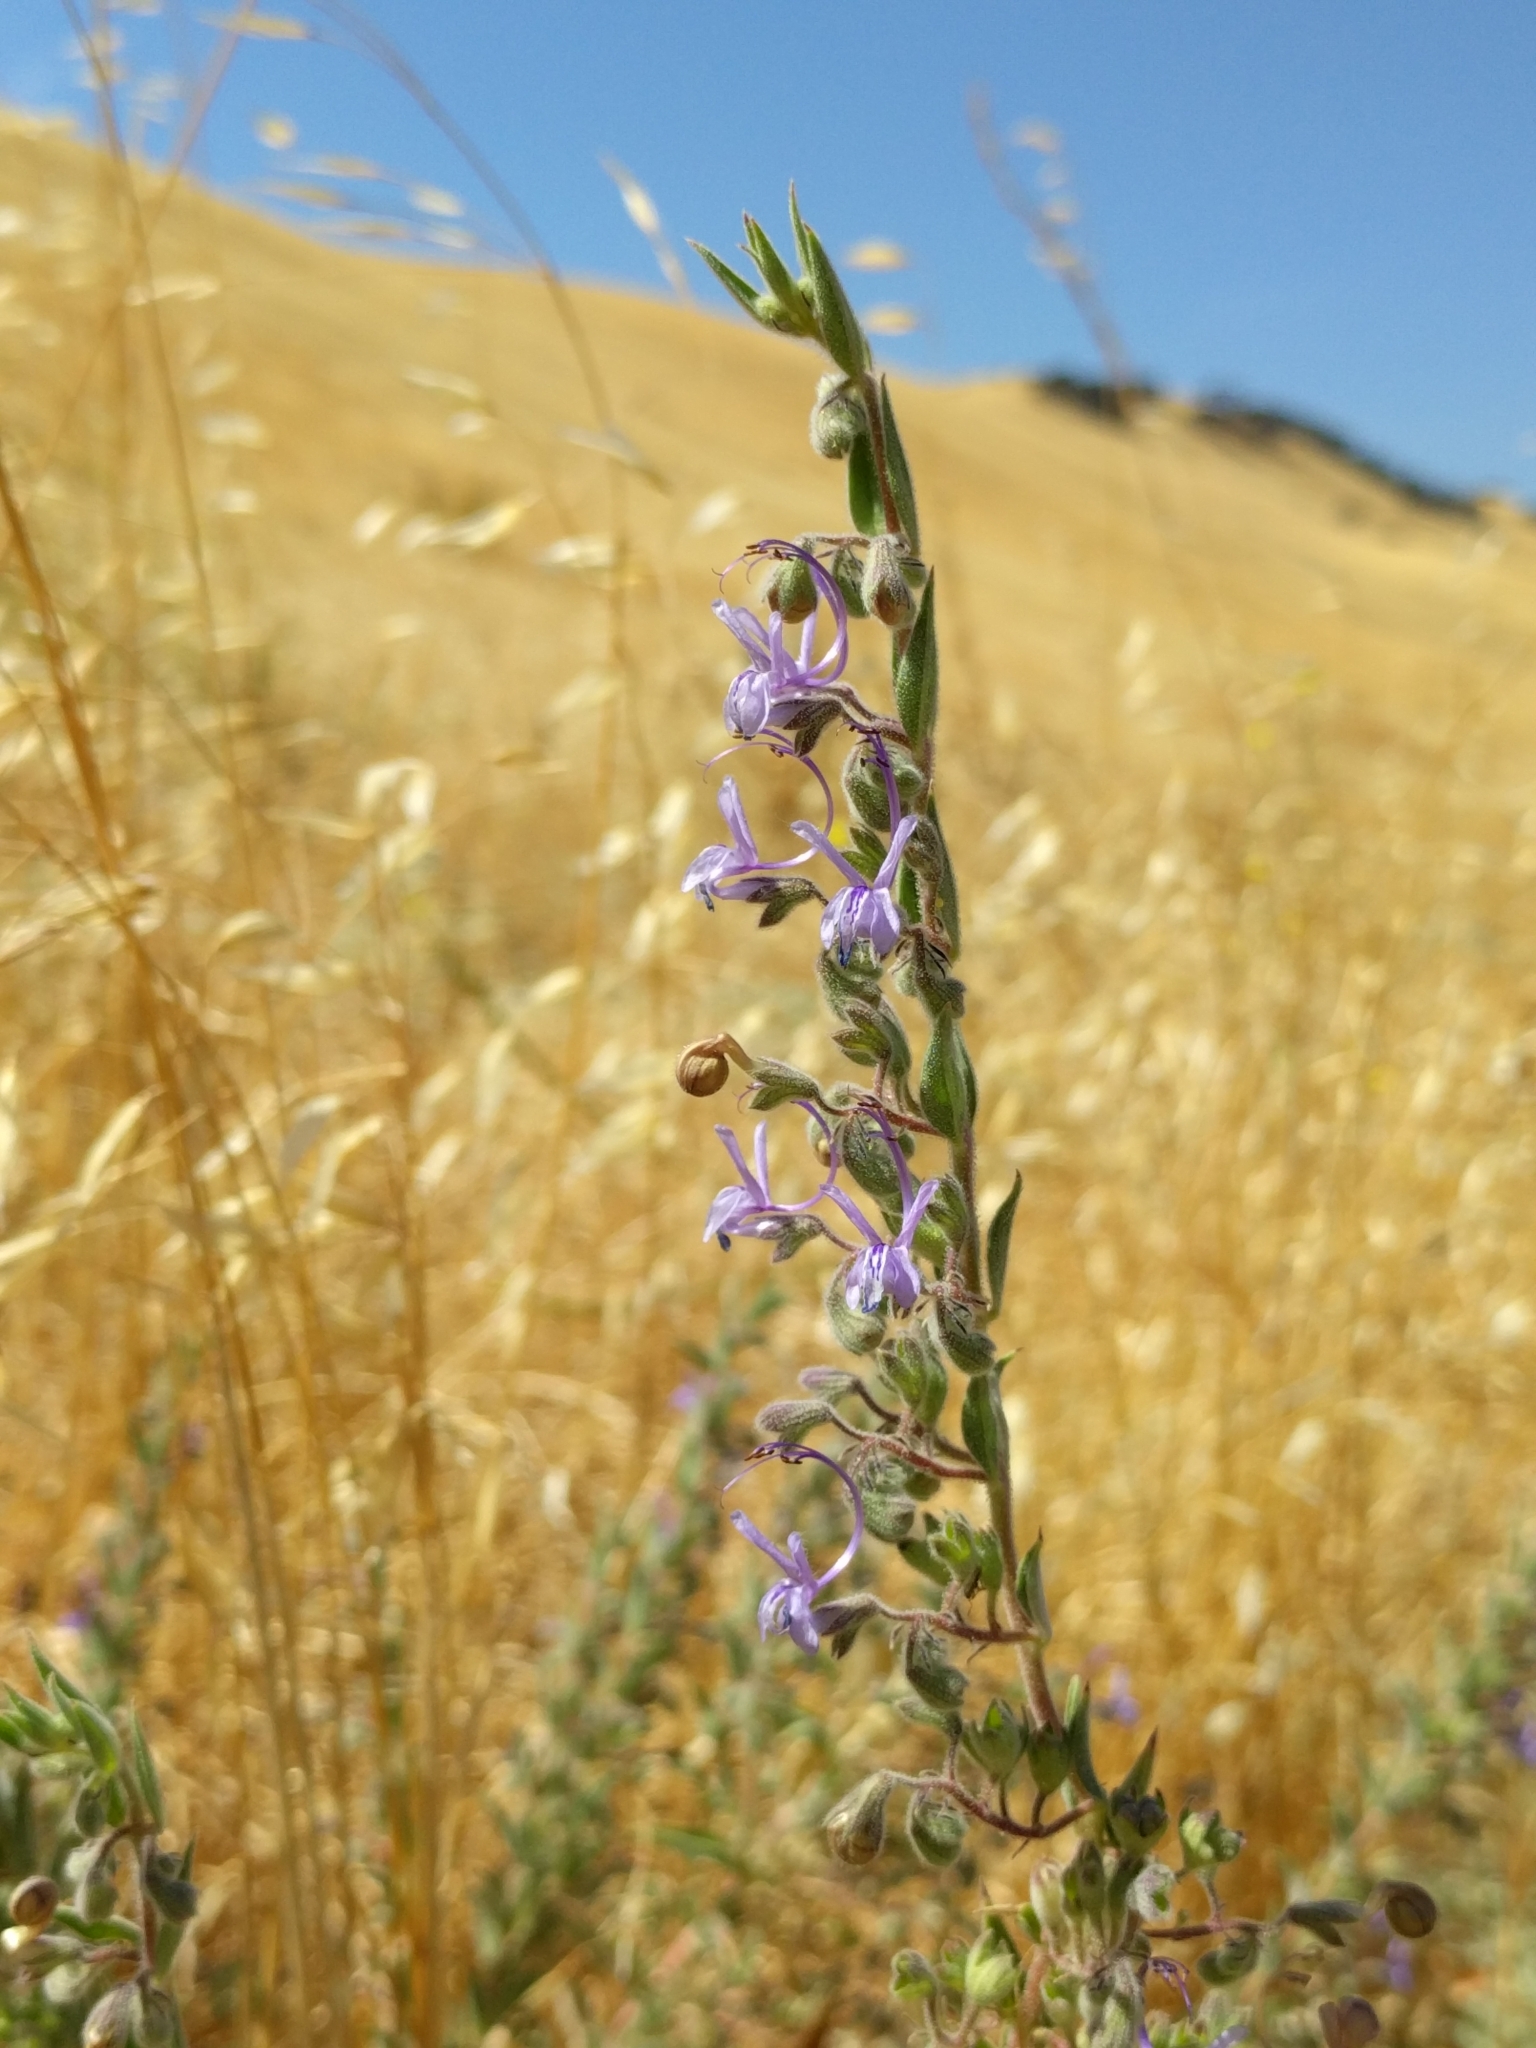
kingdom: Plantae
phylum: Tracheophyta
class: Magnoliopsida
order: Lamiales
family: Lamiaceae
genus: Trichostema
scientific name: Trichostema lanceolatum
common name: Vinegar-weed
